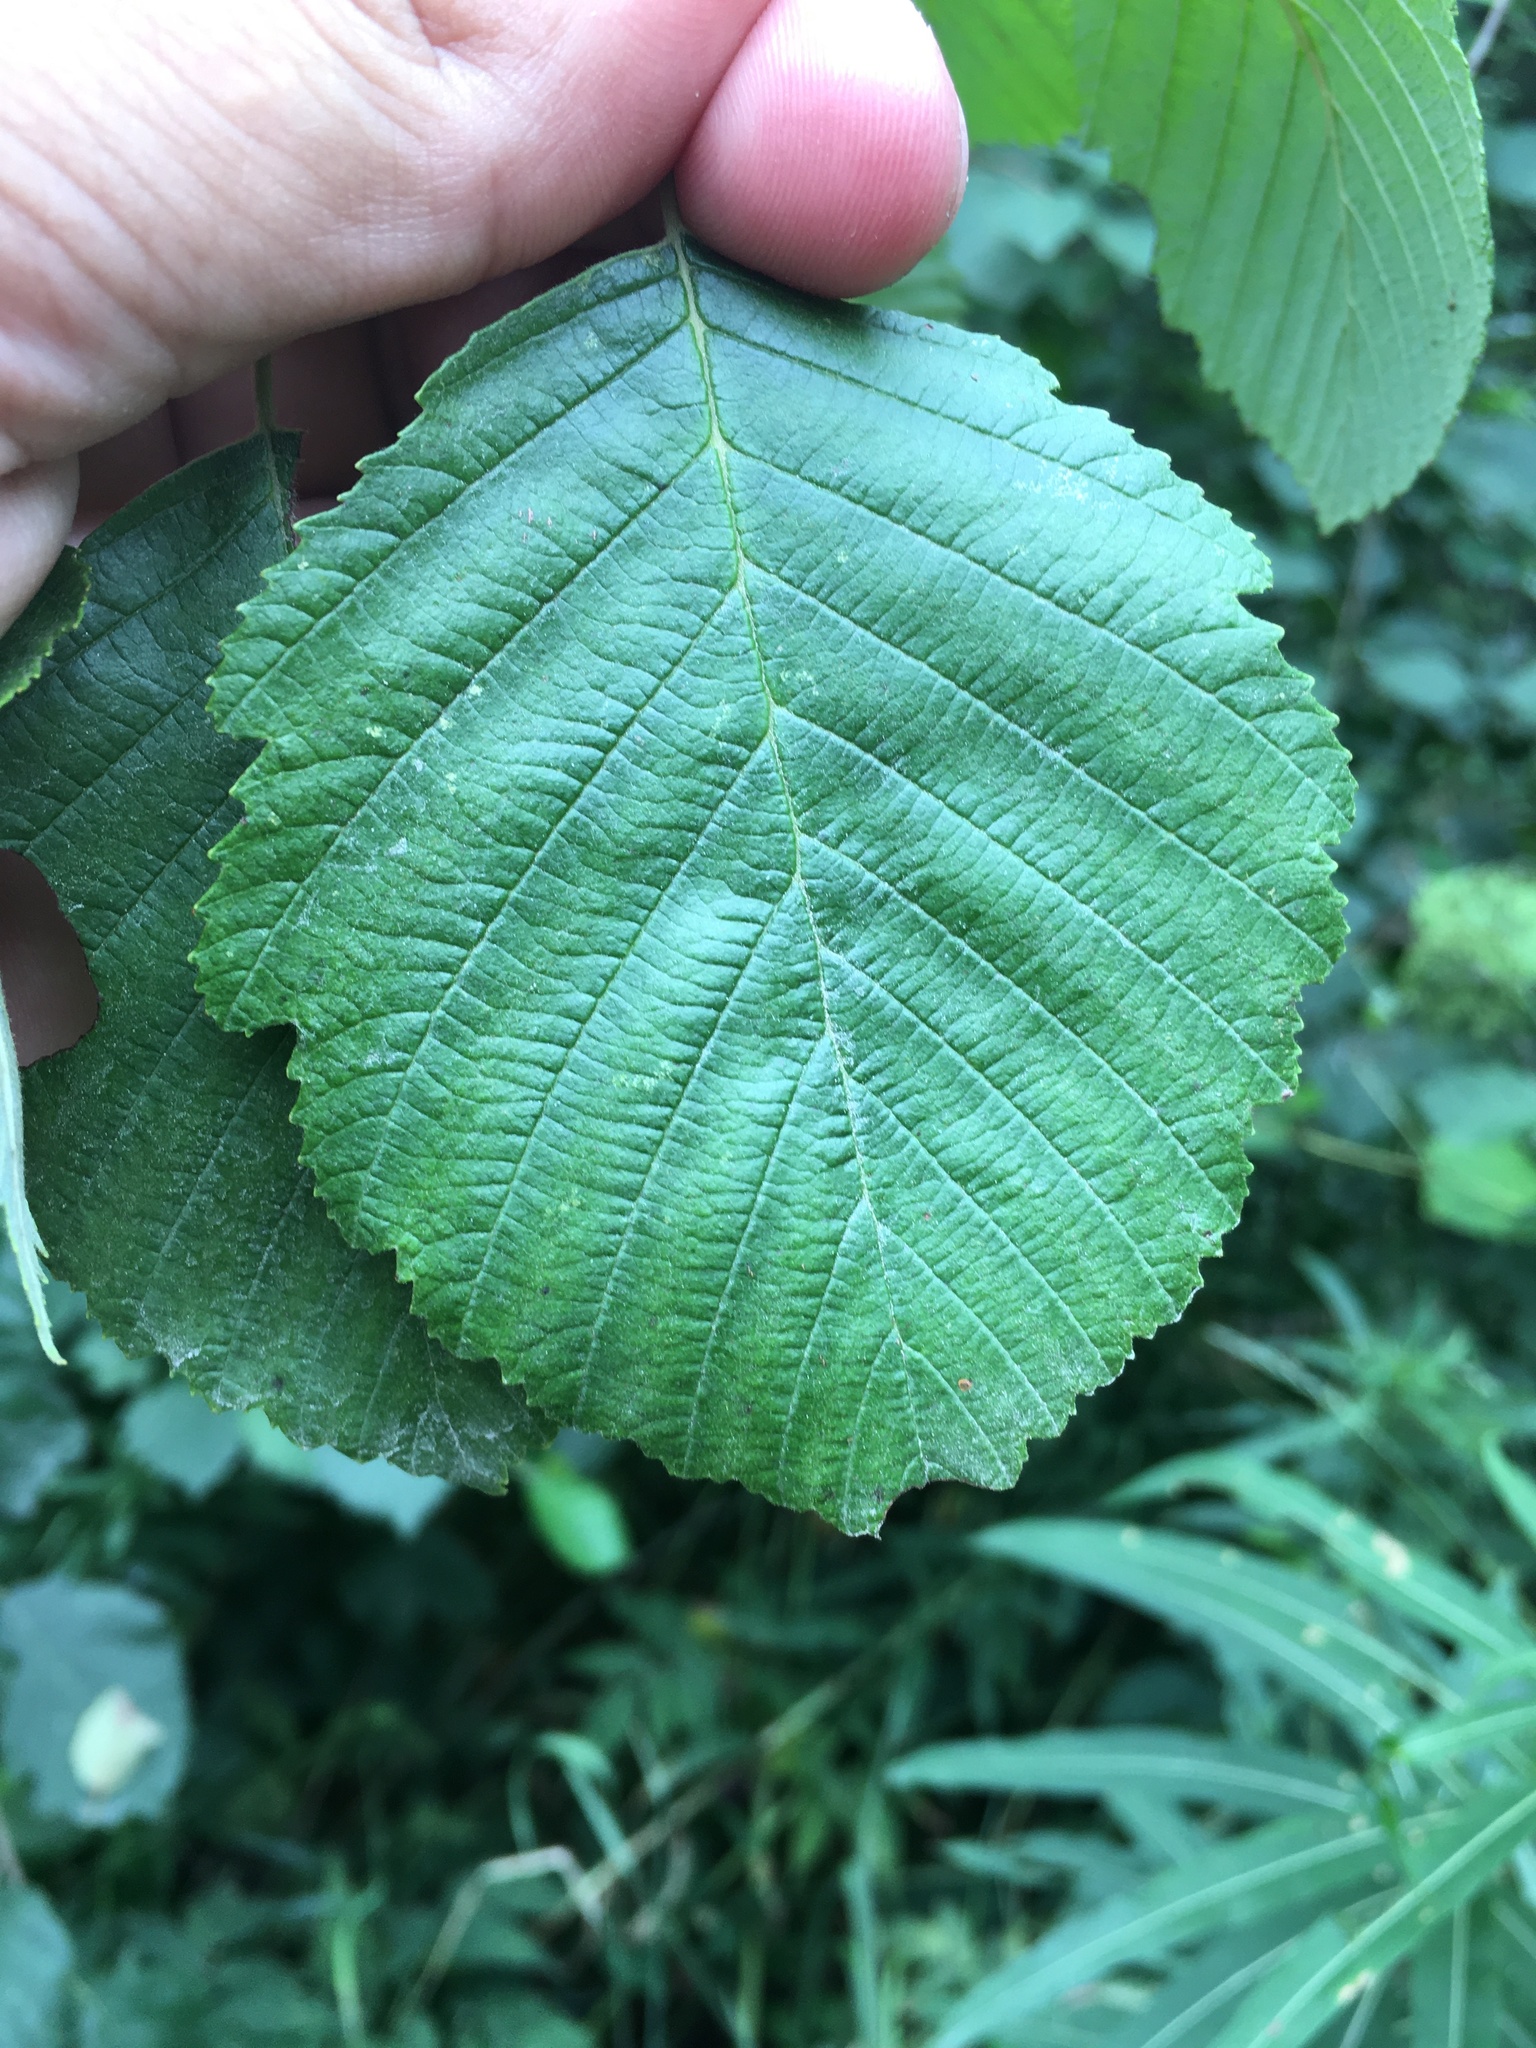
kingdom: Plantae
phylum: Tracheophyta
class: Magnoliopsida
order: Fagales
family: Betulaceae
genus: Alnus
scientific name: Alnus incana
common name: Grey alder
